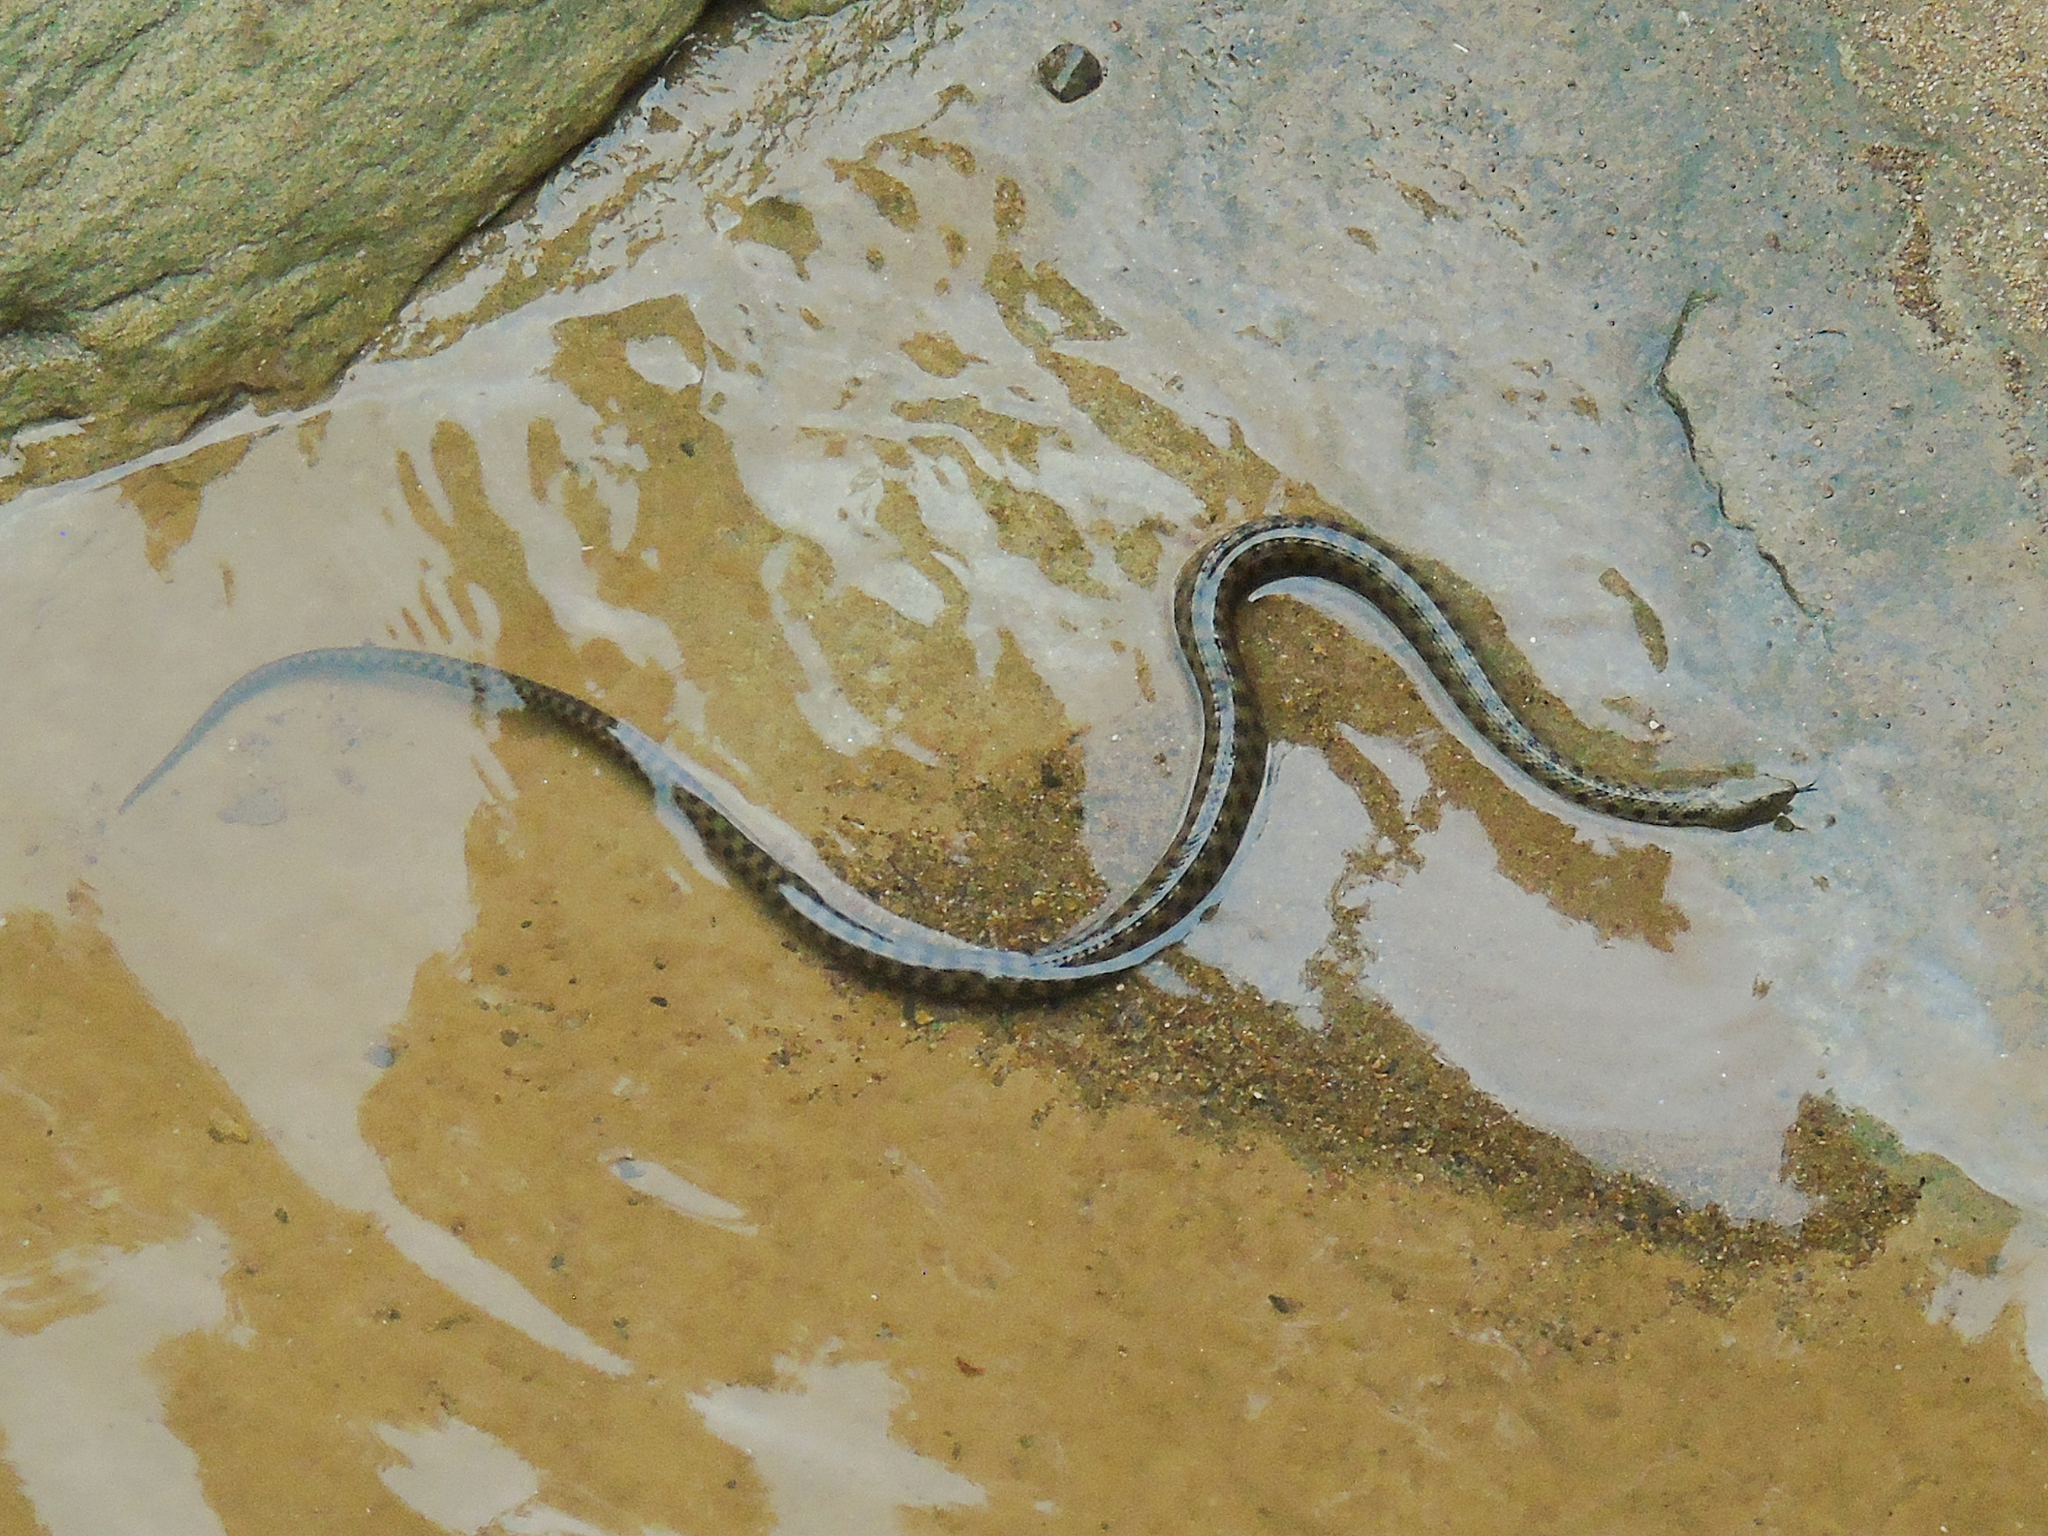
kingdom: Animalia
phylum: Chordata
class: Squamata
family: Colubridae
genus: Natrix
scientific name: Natrix tessellata
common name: Dice snake
